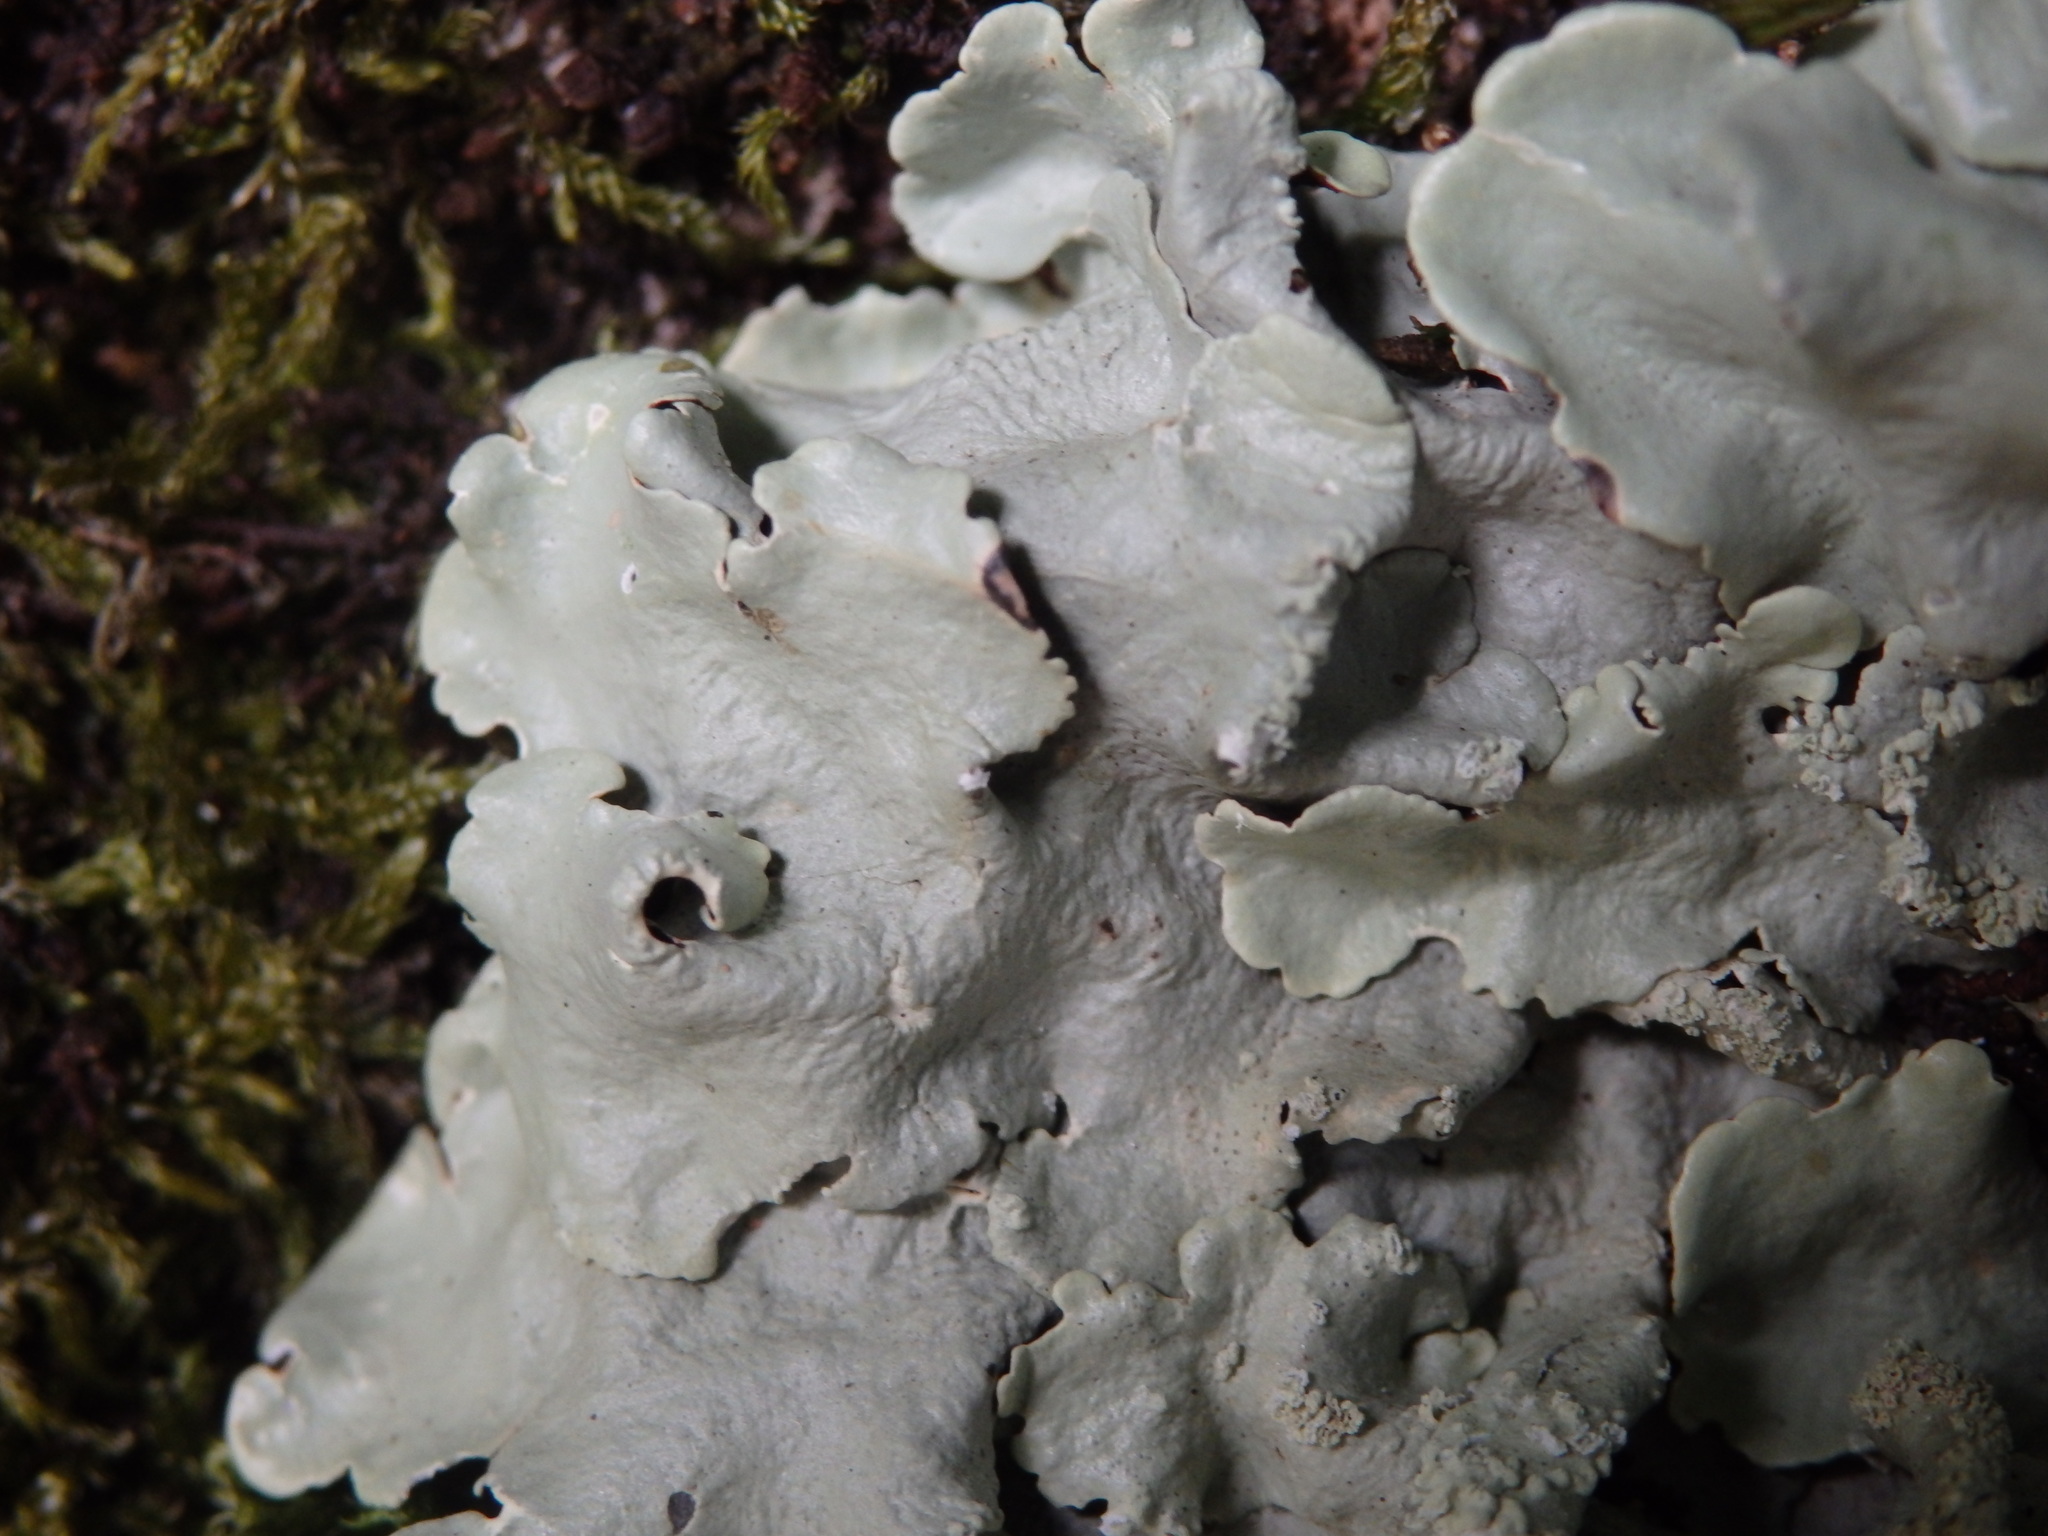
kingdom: Fungi
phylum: Ascomycota
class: Lecanoromycetes
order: Lecanorales
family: Parmeliaceae
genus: Flavoparmelia
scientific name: Flavoparmelia caperata
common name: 40-mile per hour lichen
